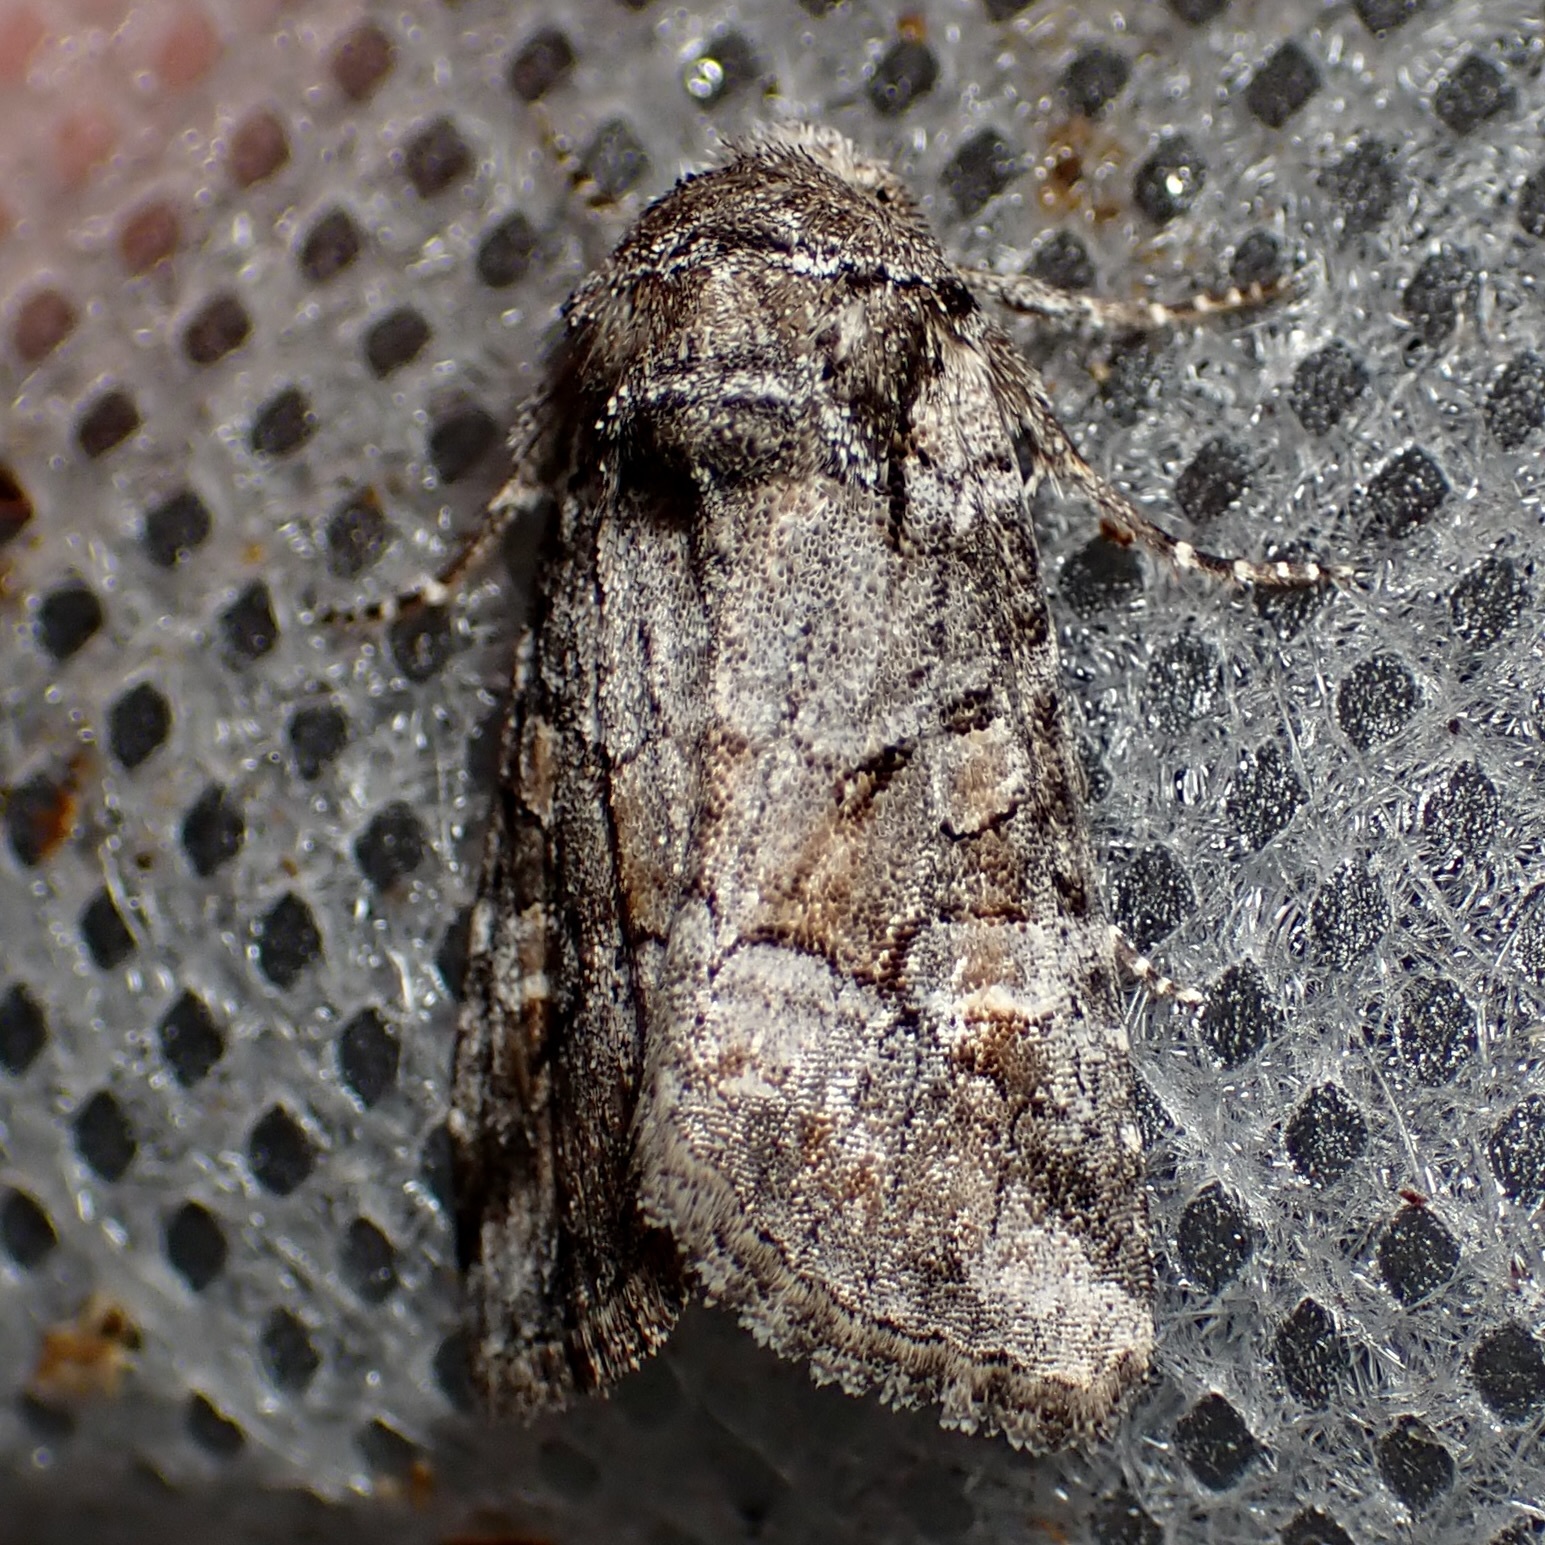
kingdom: Animalia
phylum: Arthropoda
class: Insecta
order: Lepidoptera
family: Noctuidae
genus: Lacinipolia
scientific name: Lacinipolia rodora
